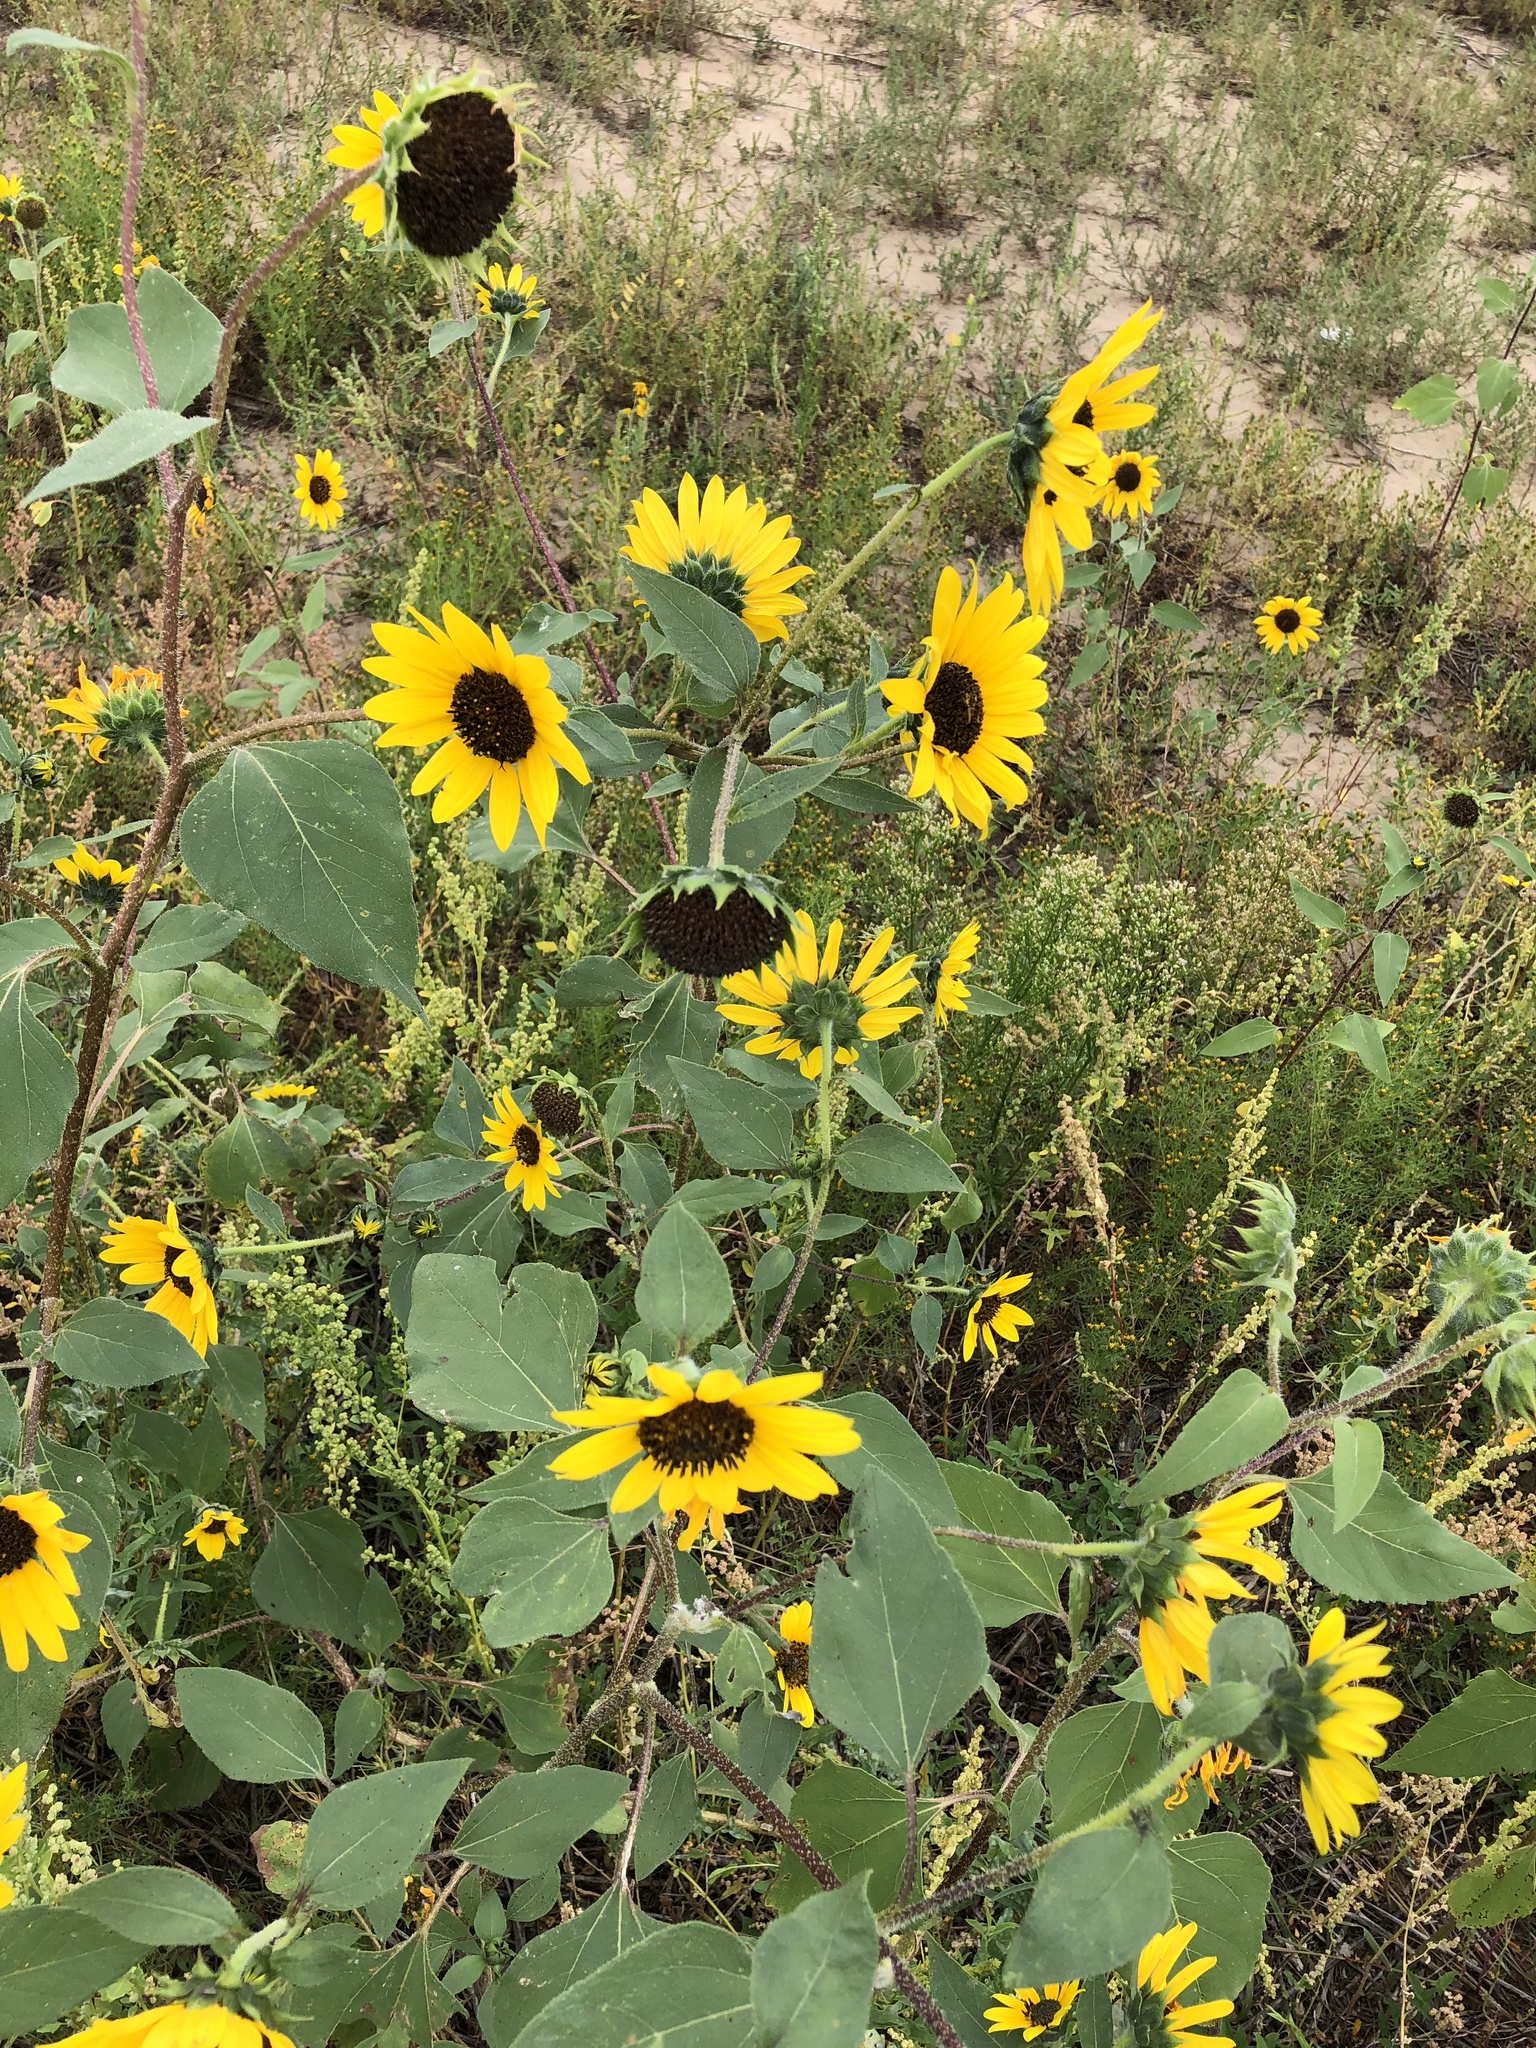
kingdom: Plantae
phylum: Tracheophyta
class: Magnoliopsida
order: Asterales
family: Asteraceae
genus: Helianthus
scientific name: Helianthus annuus
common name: Sunflower
